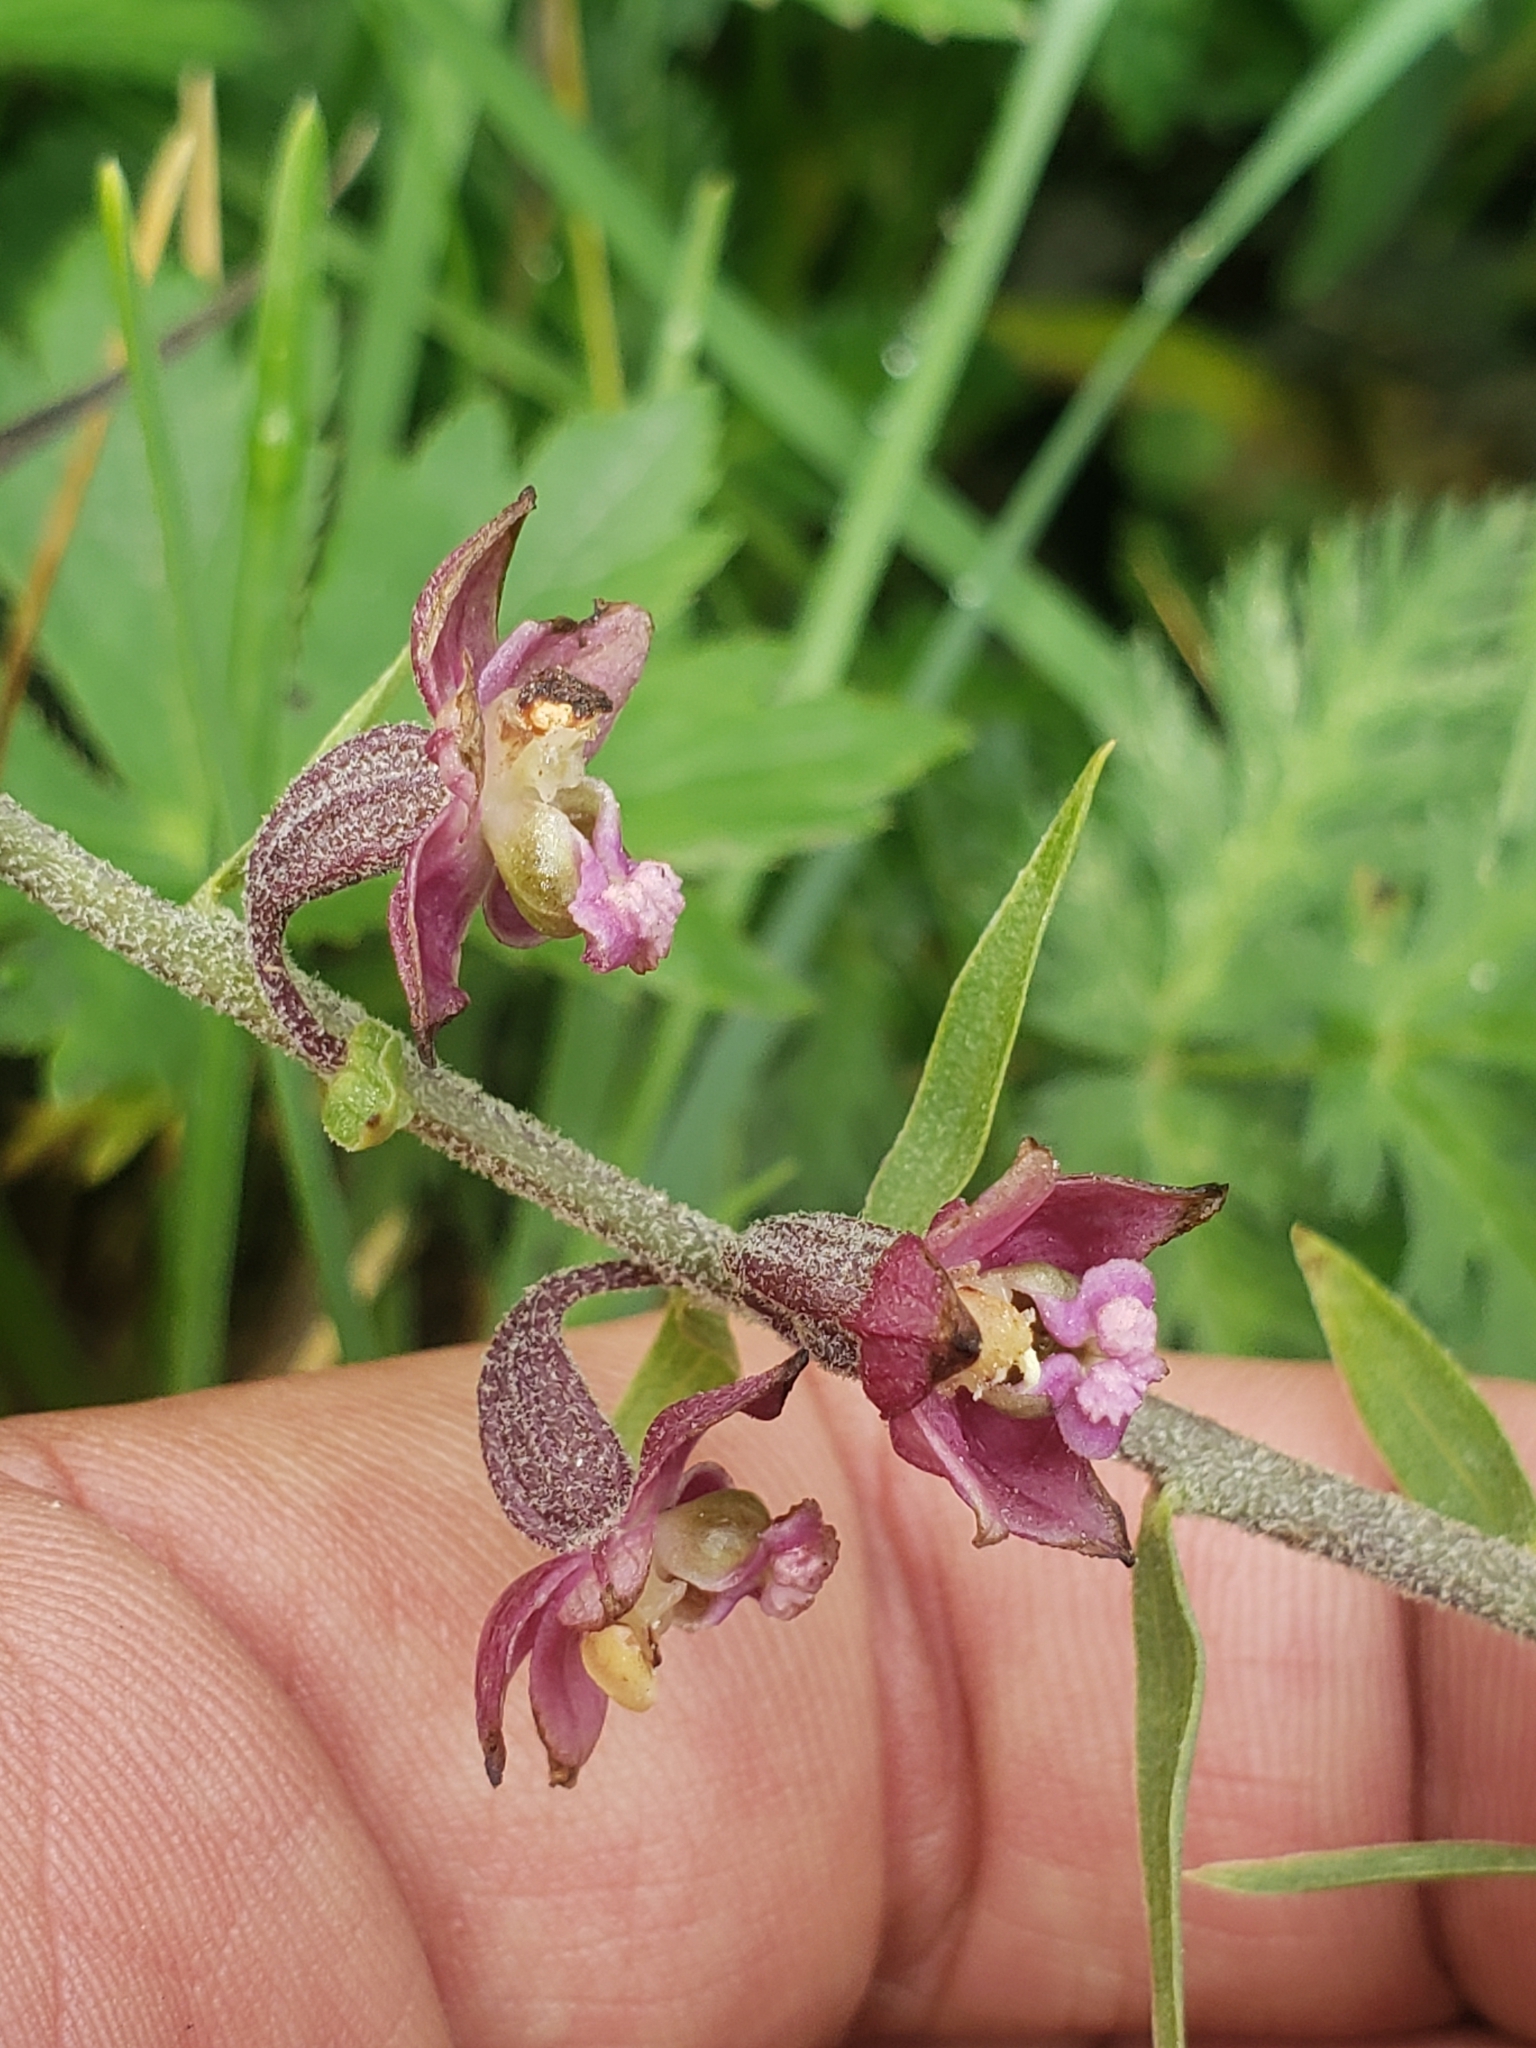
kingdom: Plantae
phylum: Tracheophyta
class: Liliopsida
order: Asparagales
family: Orchidaceae
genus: Epipactis
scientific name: Epipactis atrorubens
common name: Dark-red helleborine
